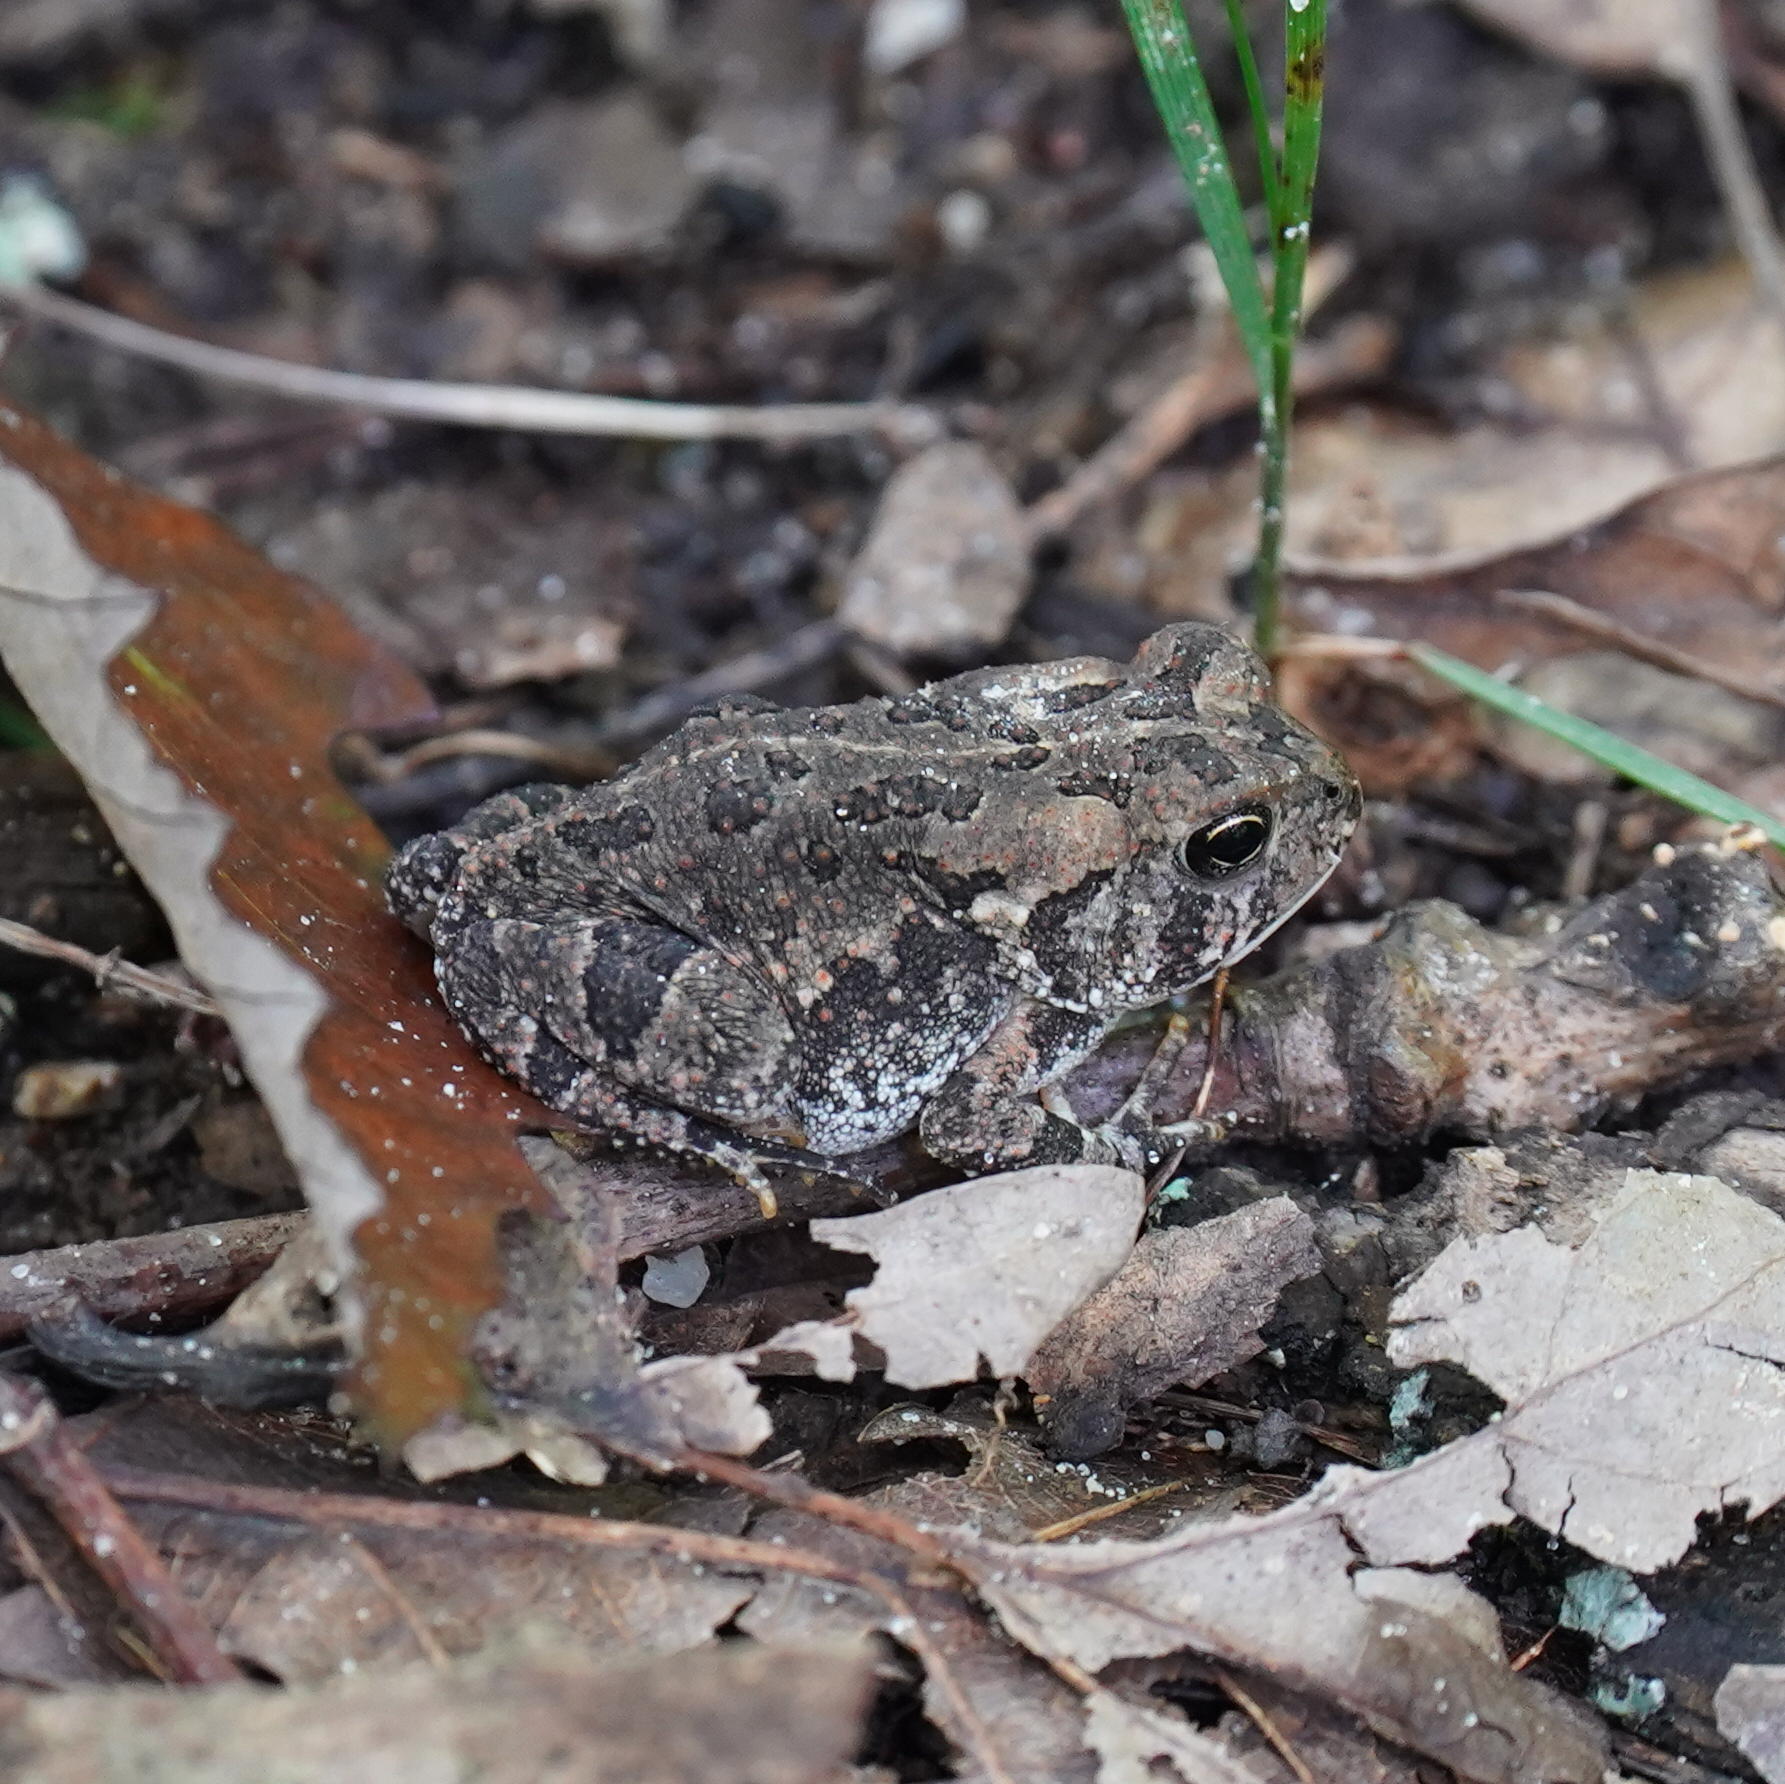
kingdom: Animalia
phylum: Chordata
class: Amphibia
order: Anura
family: Bufonidae
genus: Anaxyrus
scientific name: Anaxyrus fowleri
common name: Fowler's toad
